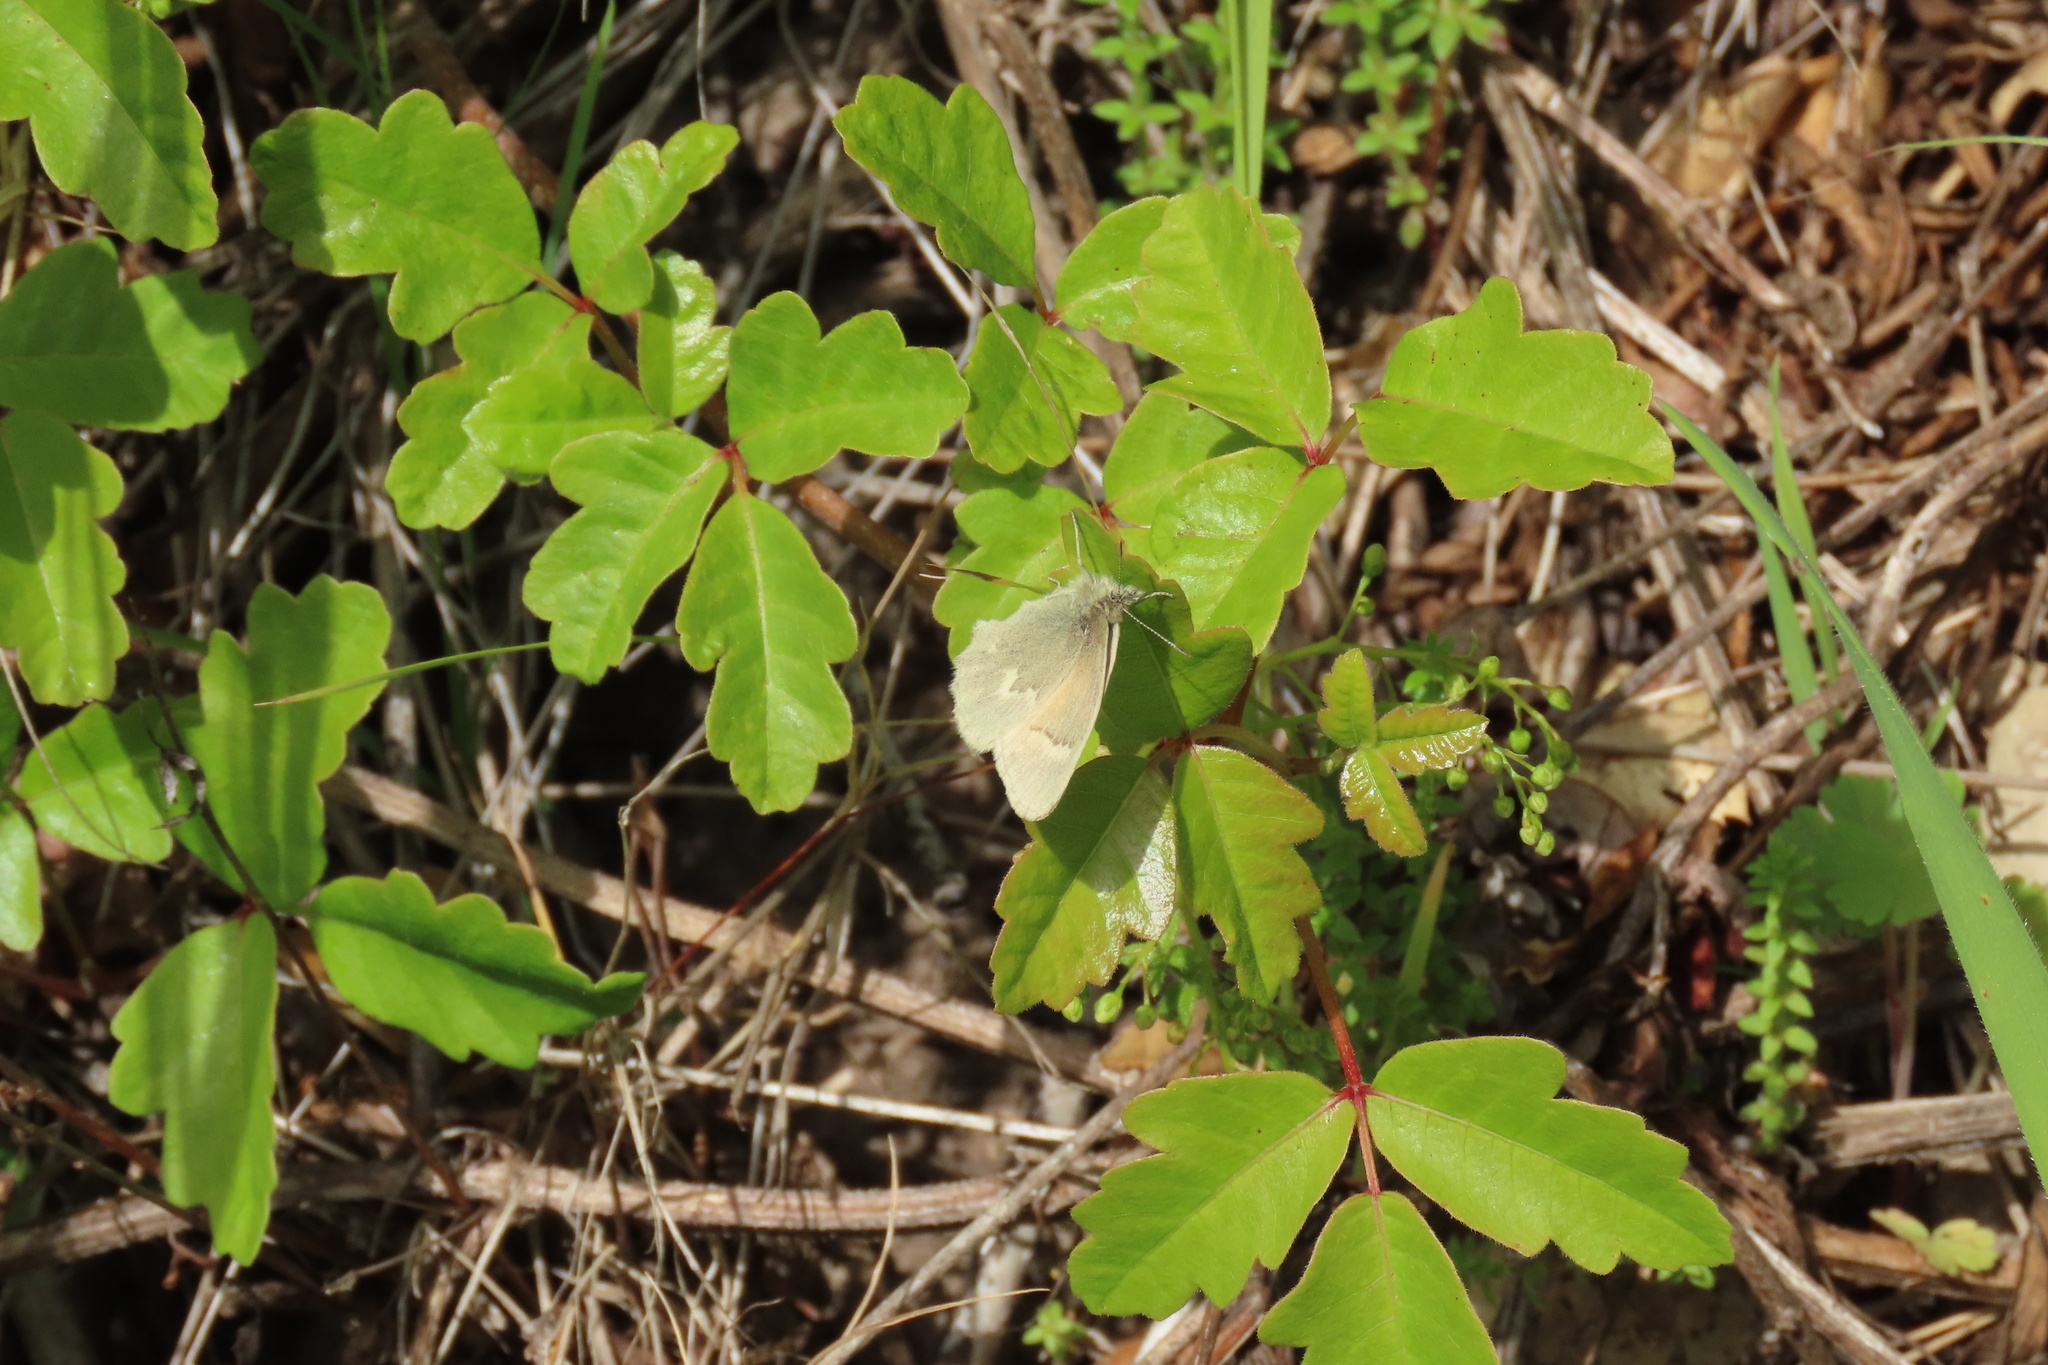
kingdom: Animalia
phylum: Arthropoda
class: Insecta
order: Lepidoptera
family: Nymphalidae
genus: Coenonympha
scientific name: Coenonympha california
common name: Common ringlet
